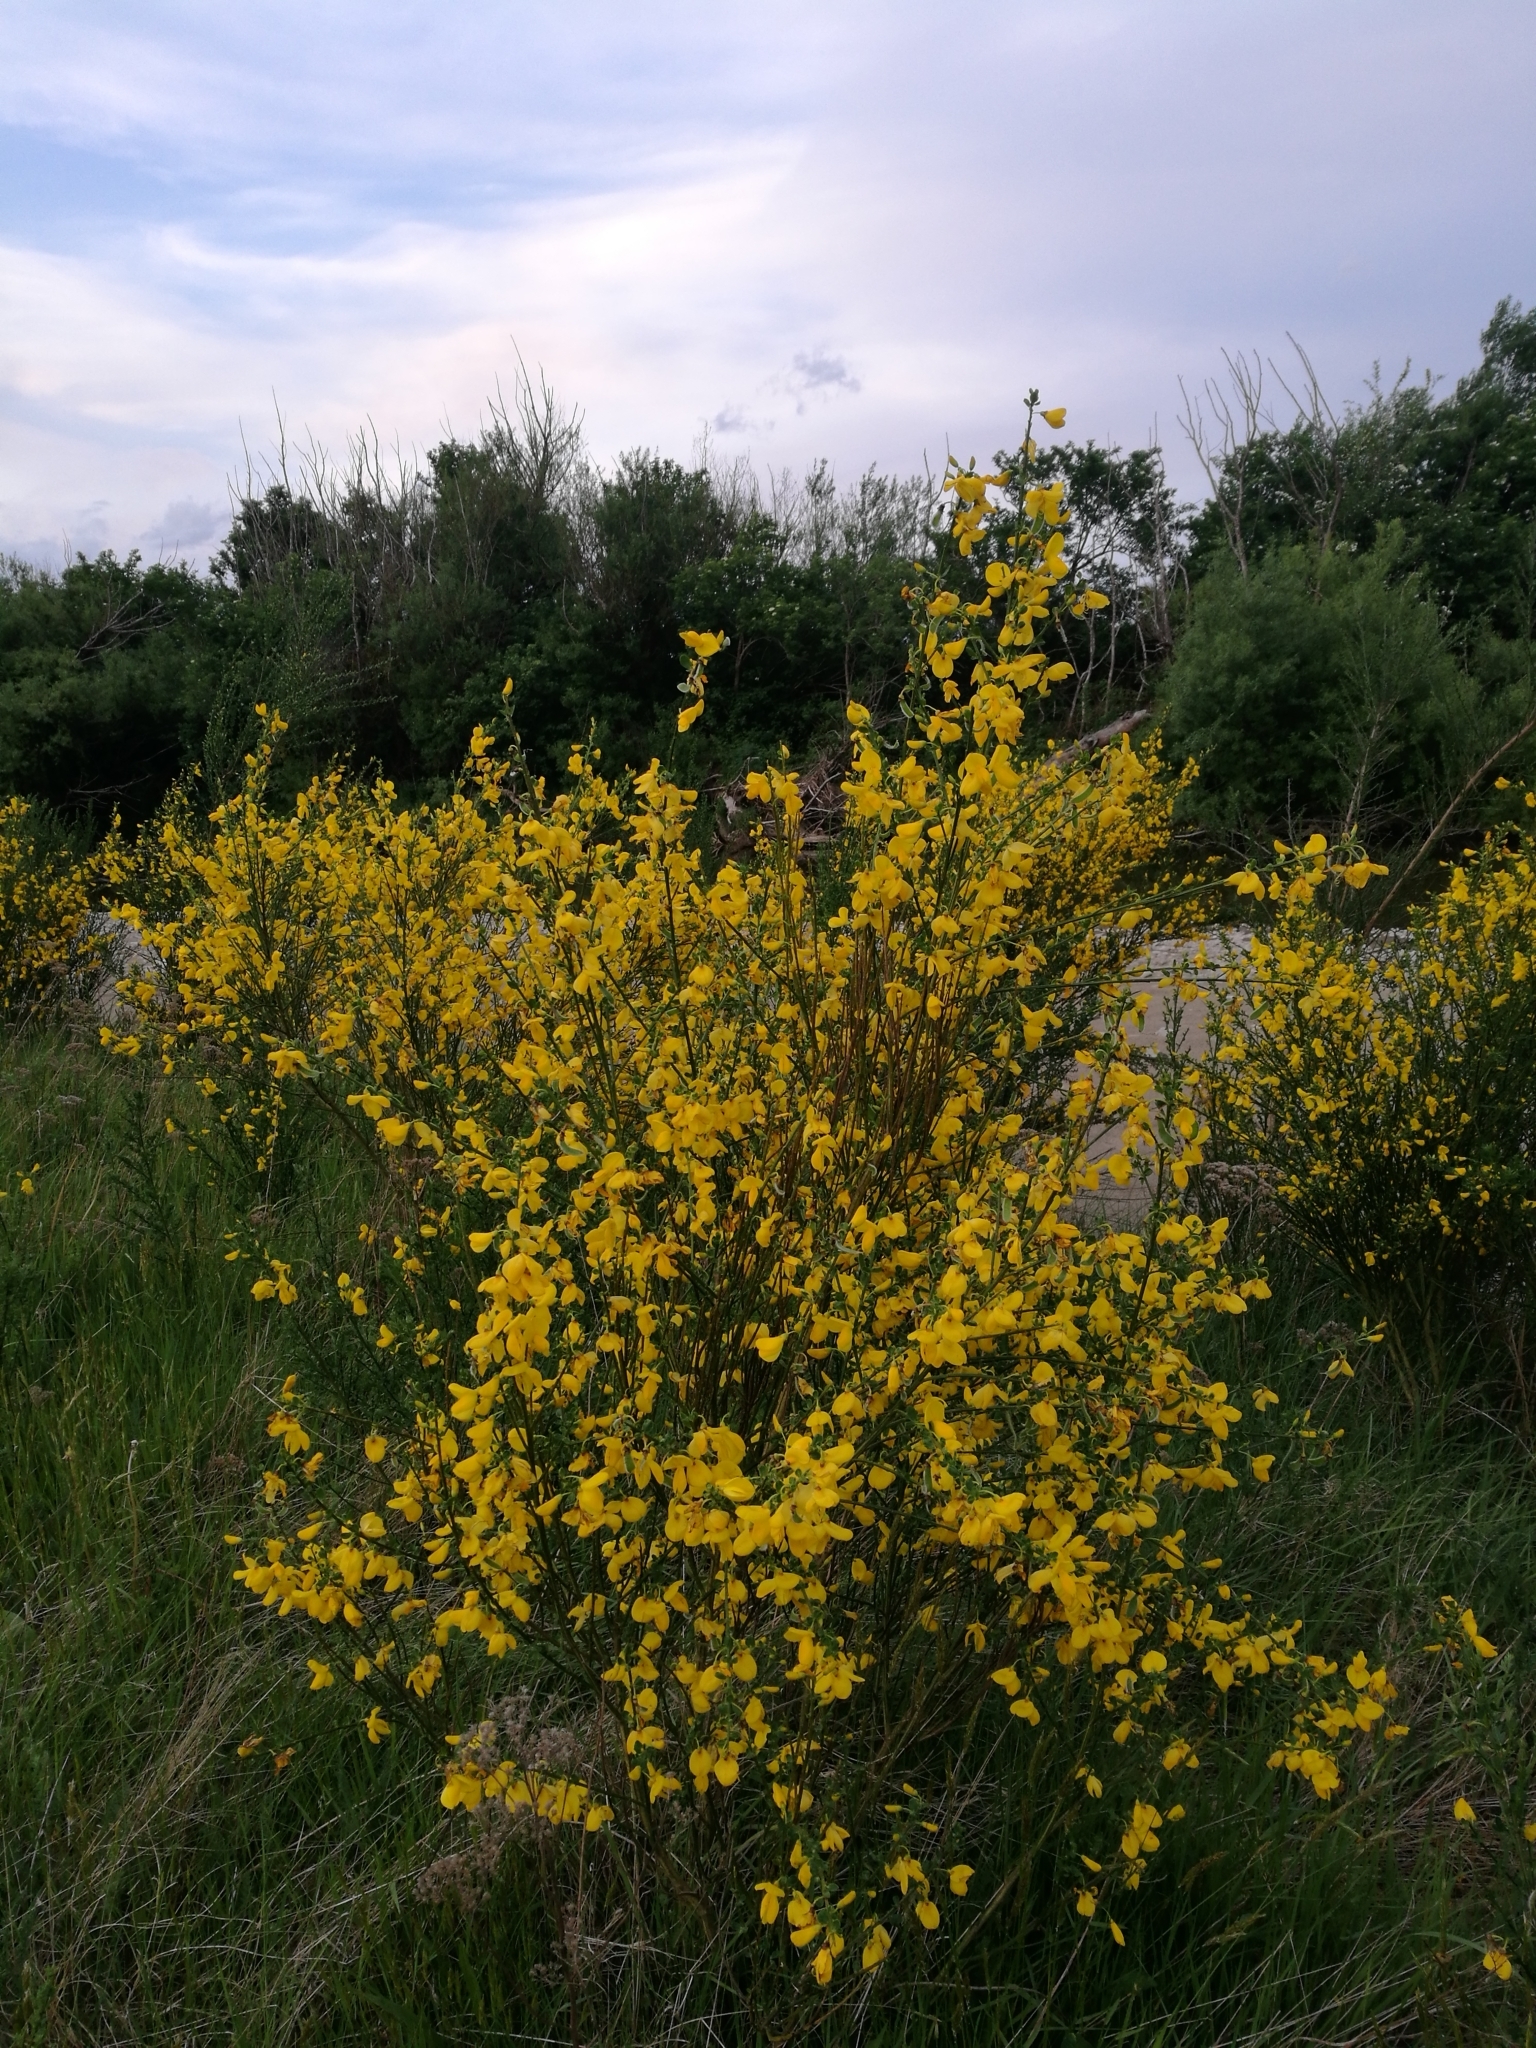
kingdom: Plantae
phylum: Tracheophyta
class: Magnoliopsida
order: Fabales
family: Fabaceae
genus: Cytisus
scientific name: Cytisus scoparius
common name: Scotch broom
